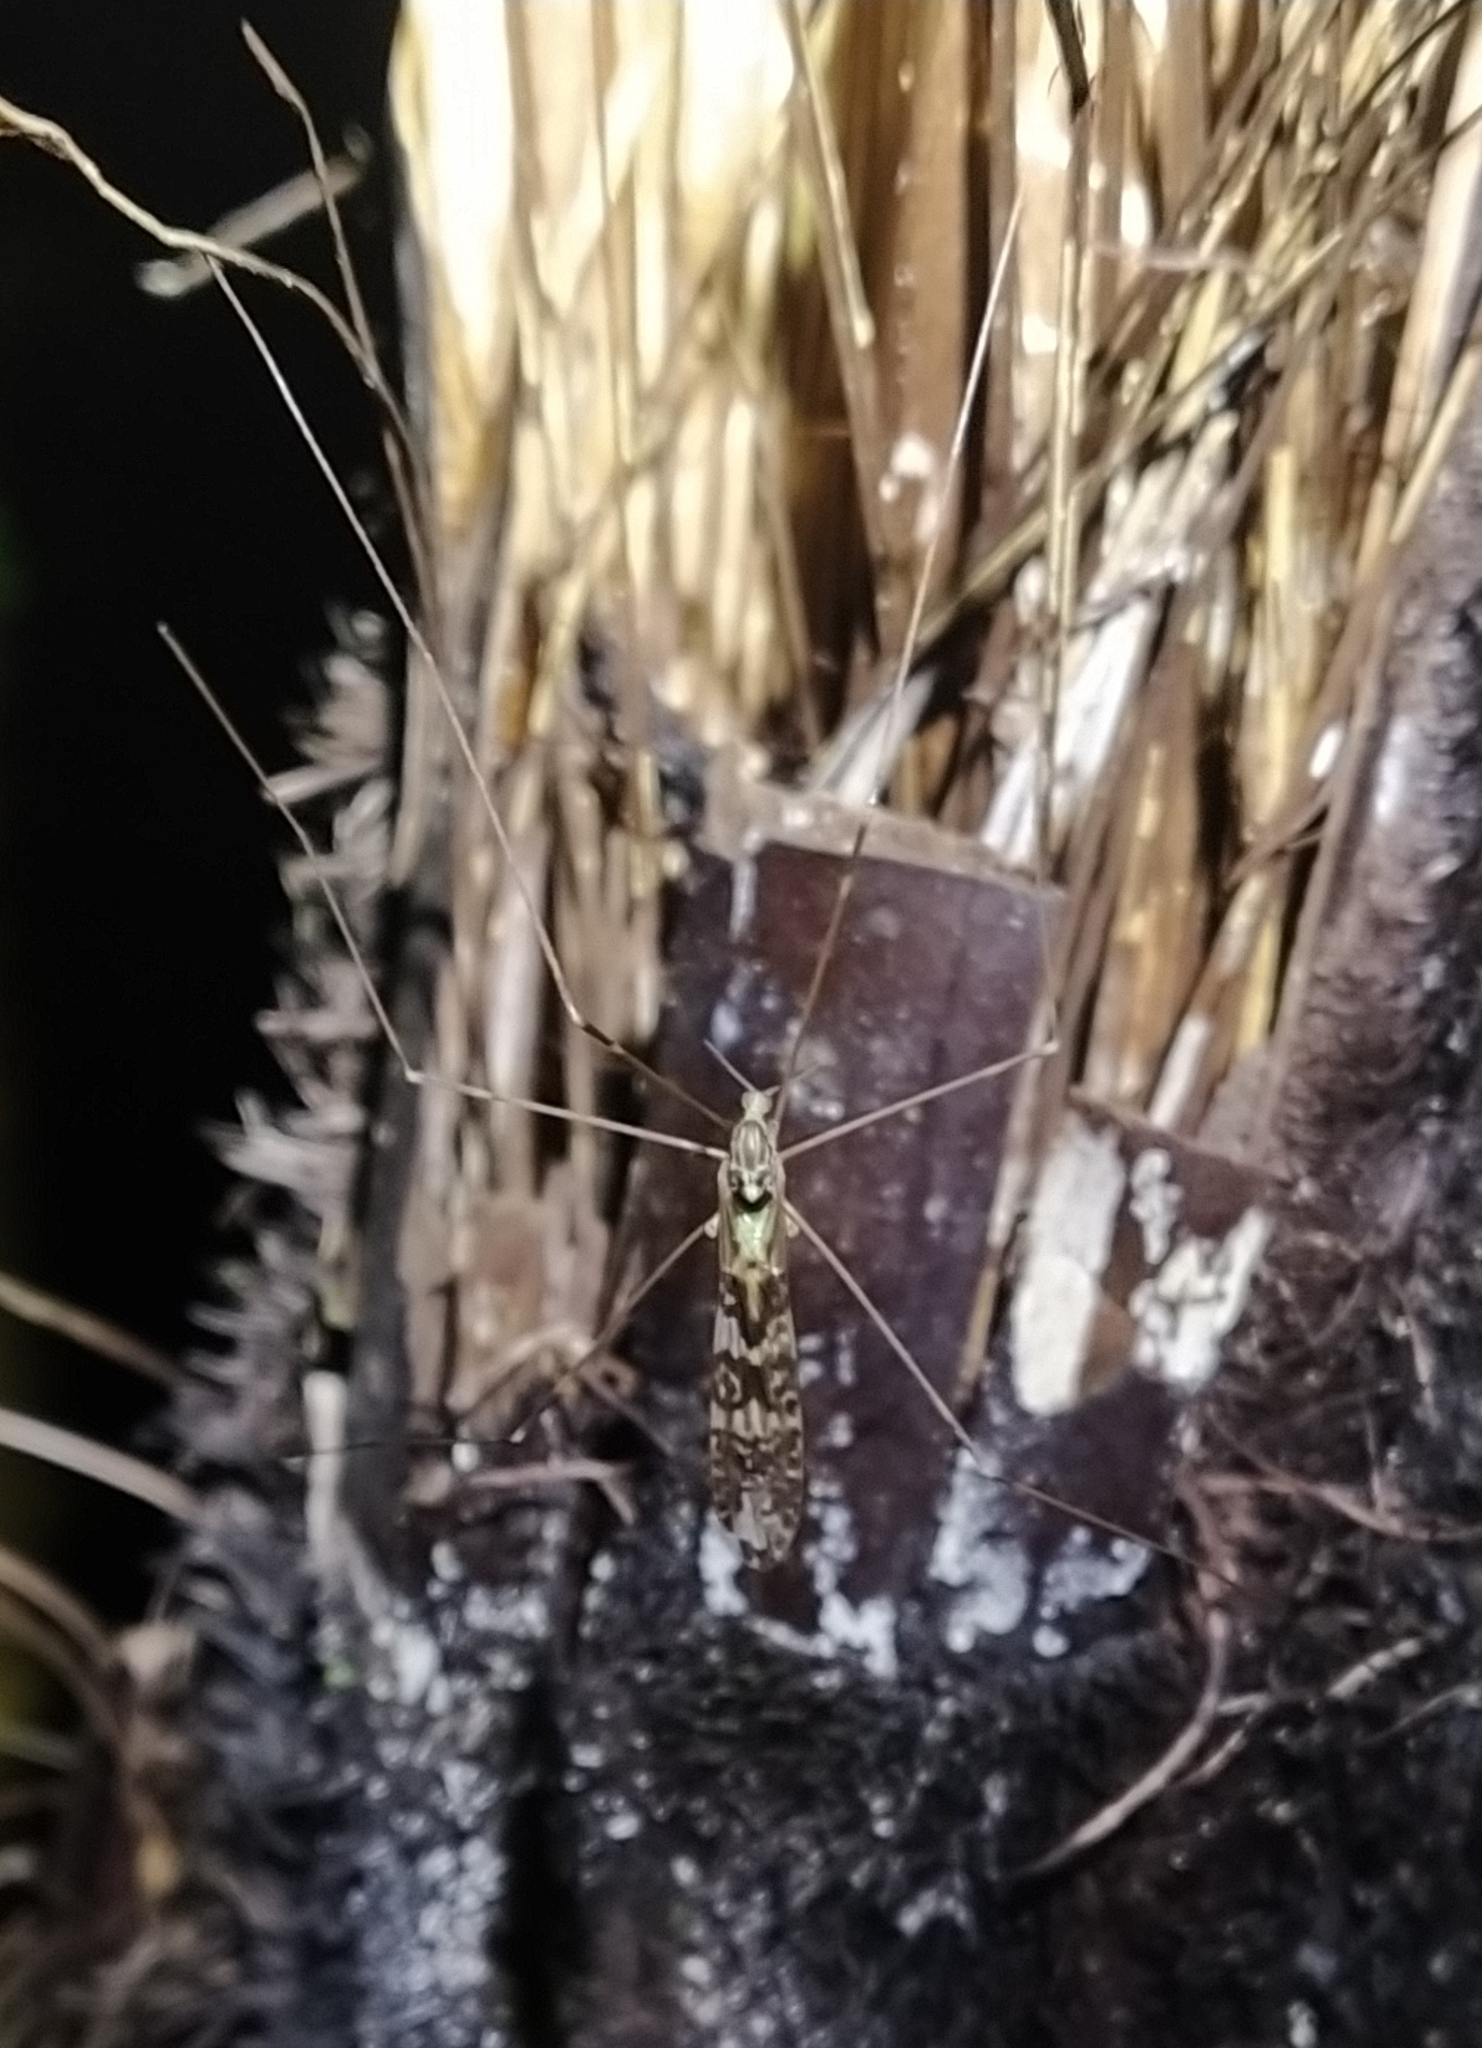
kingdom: Animalia
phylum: Arthropoda
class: Insecta
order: Diptera
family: Limoniidae
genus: Discobola
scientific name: Discobola dohrni
